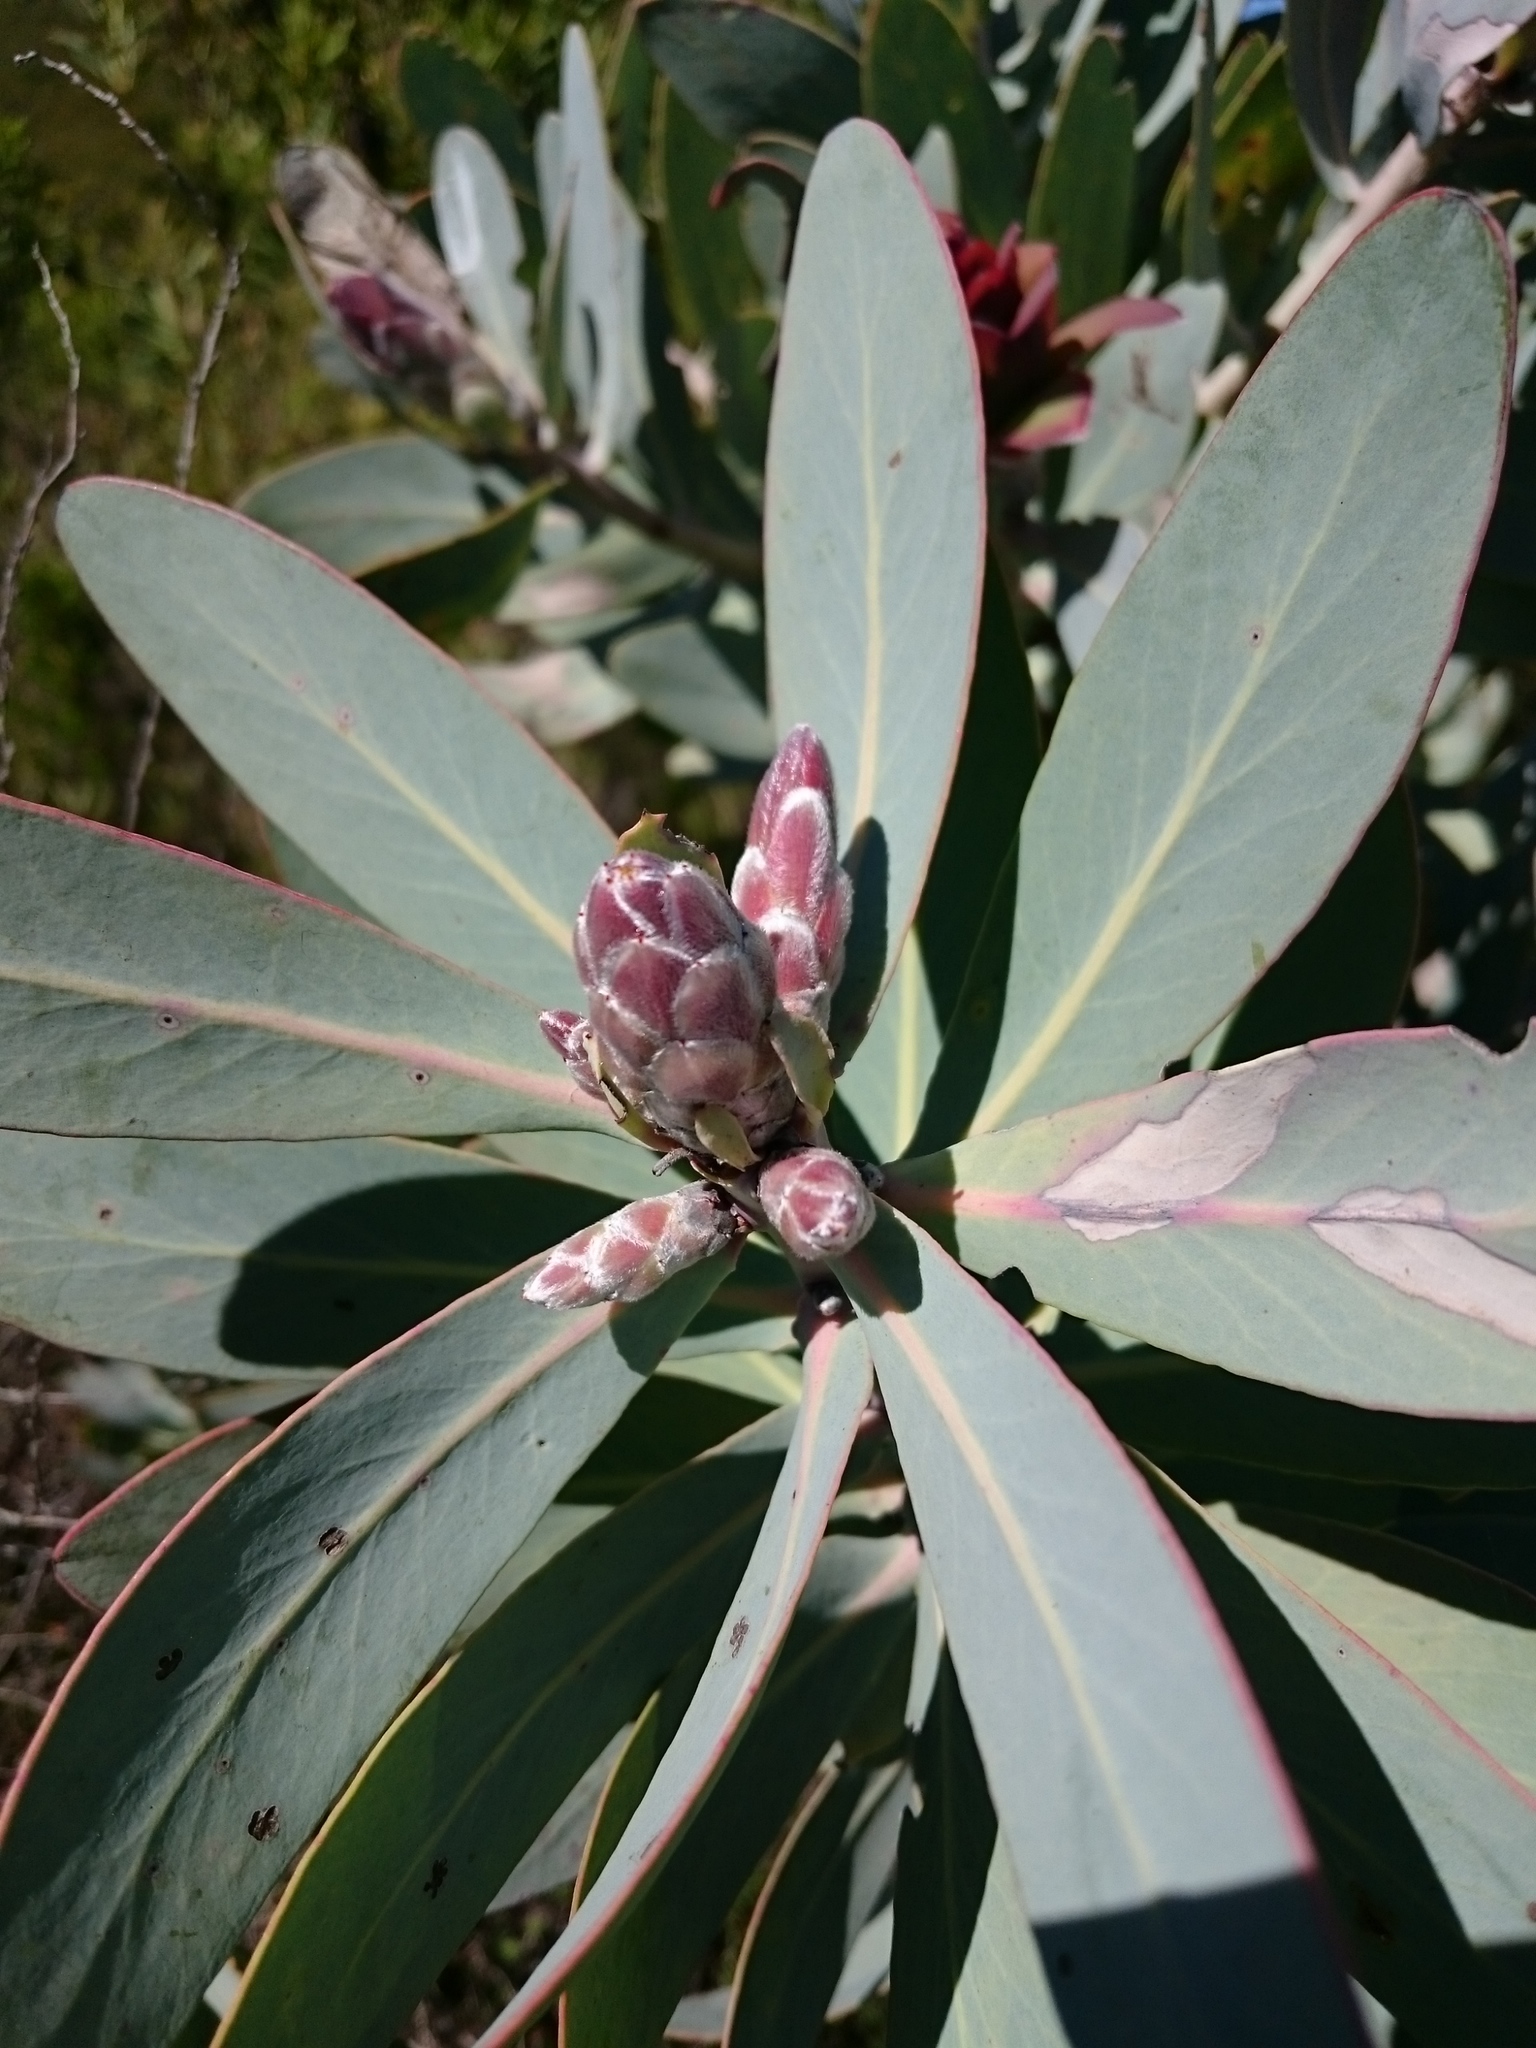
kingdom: Plantae
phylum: Tracheophyta
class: Magnoliopsida
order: Proteales
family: Proteaceae
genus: Protea
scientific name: Protea nitida
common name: Tree protea
